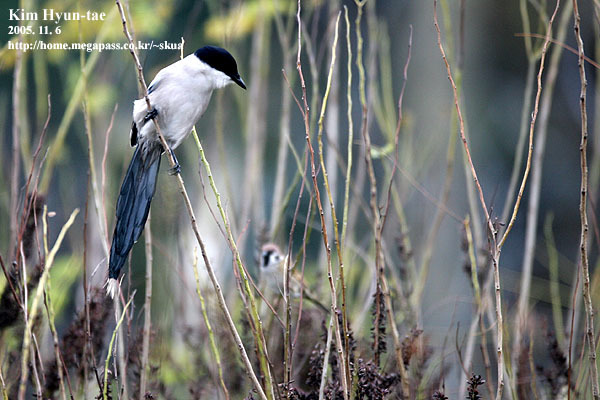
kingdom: Animalia
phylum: Chordata
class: Aves
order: Passeriformes
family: Corvidae
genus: Cyanopica
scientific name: Cyanopica cyanus
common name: Azure-winged magpie
